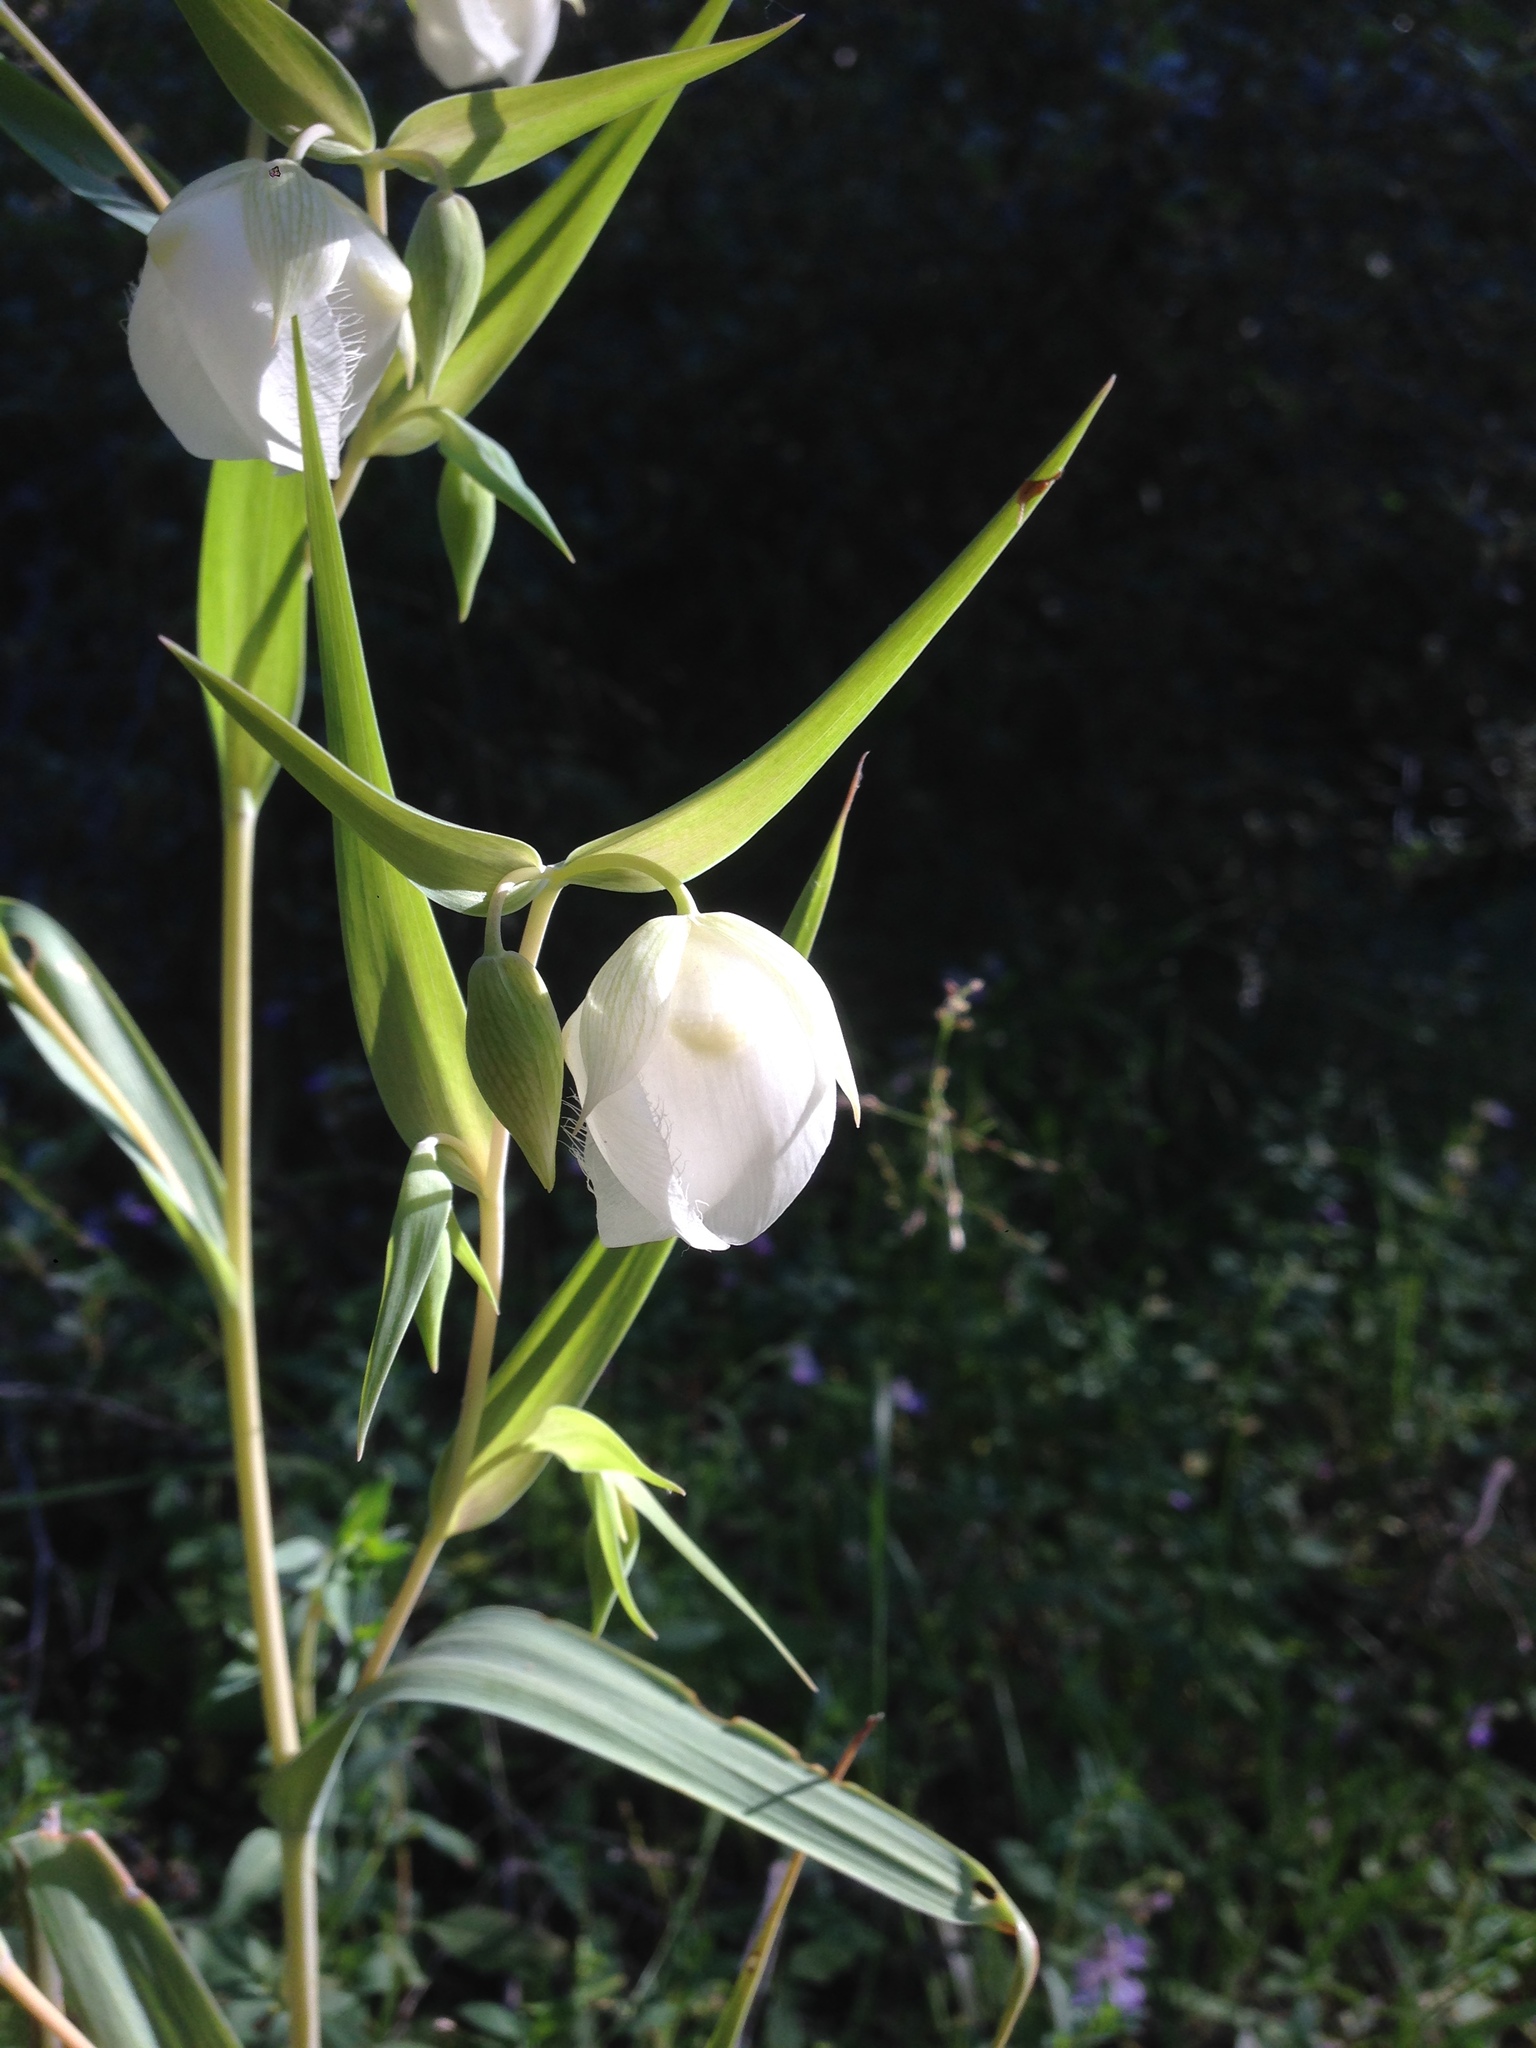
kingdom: Plantae
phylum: Tracheophyta
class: Liliopsida
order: Liliales
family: Liliaceae
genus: Calochortus
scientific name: Calochortus albus
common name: Fairy-lantern
